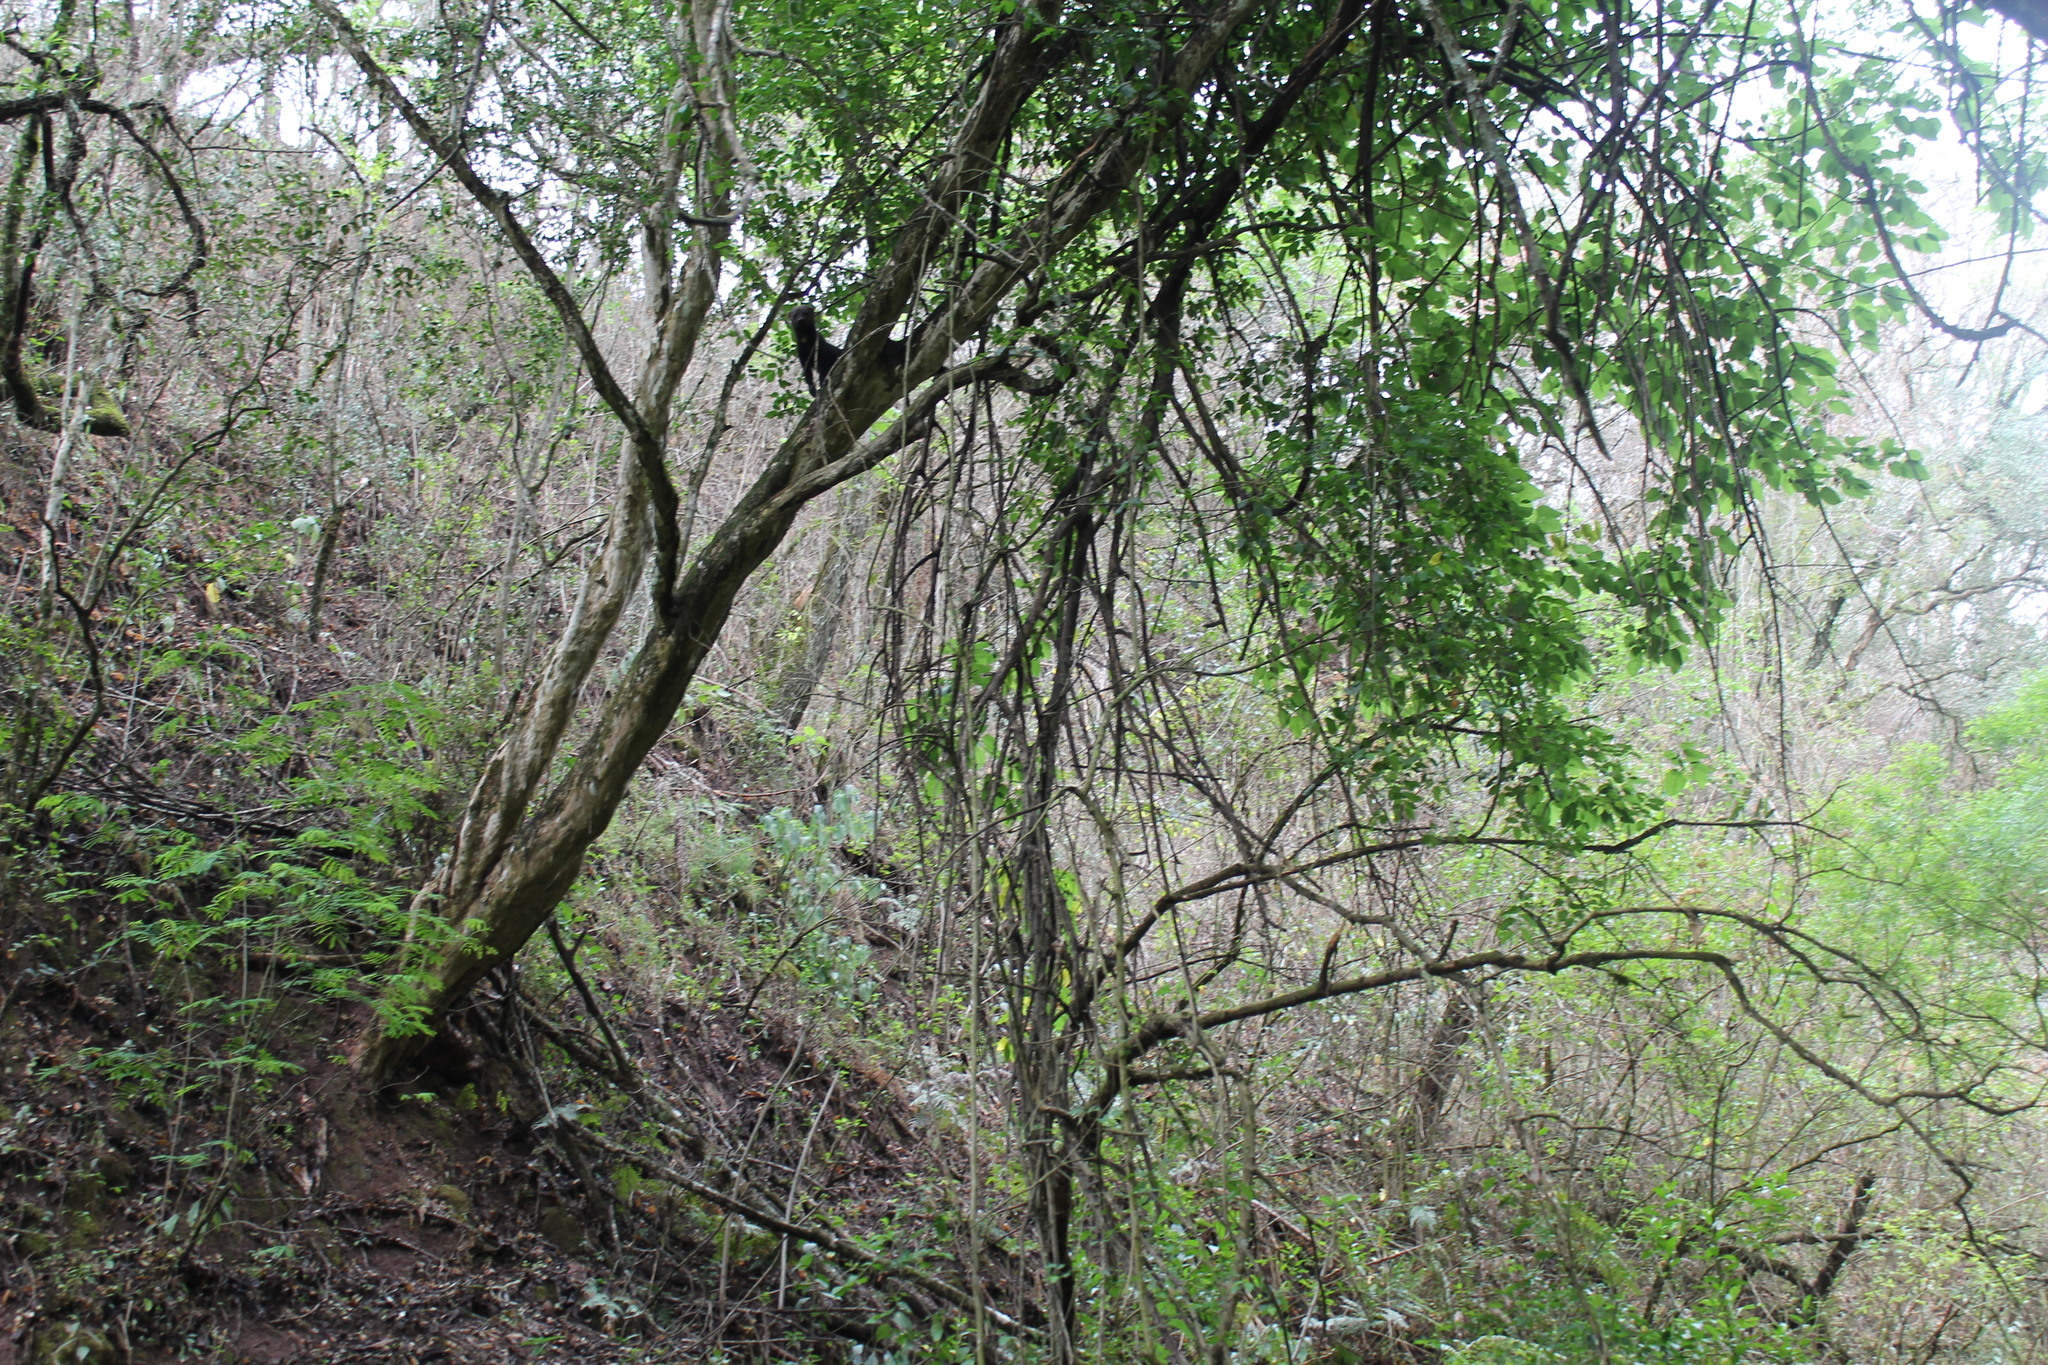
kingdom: Animalia
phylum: Chordata
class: Mammalia
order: Carnivora
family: Mustelidae
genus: Eira
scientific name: Eira barbara
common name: Tayra
